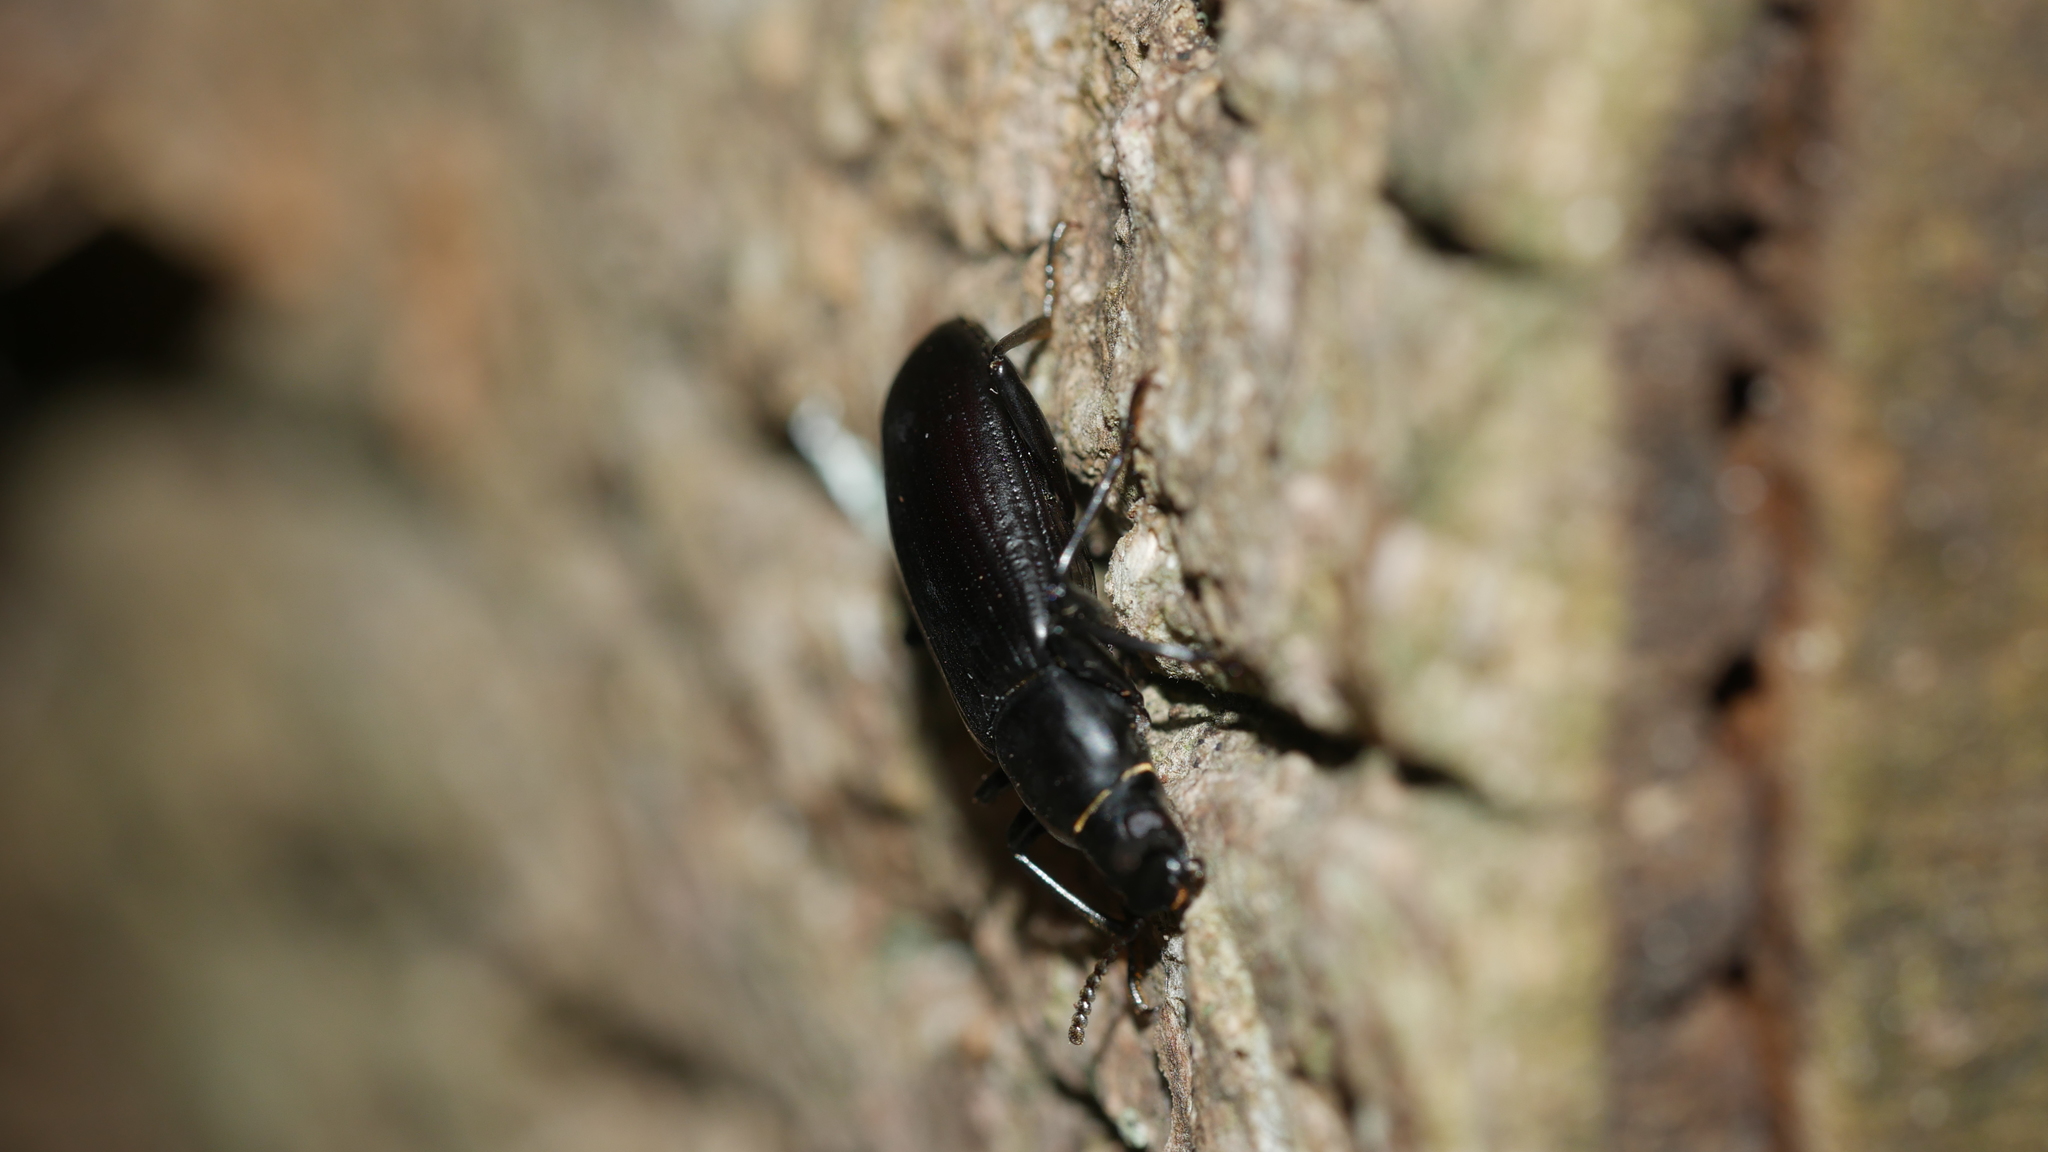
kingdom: Animalia
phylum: Arthropoda
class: Insecta
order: Coleoptera
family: Tenebrionidae
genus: Alobates
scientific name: Alobates
